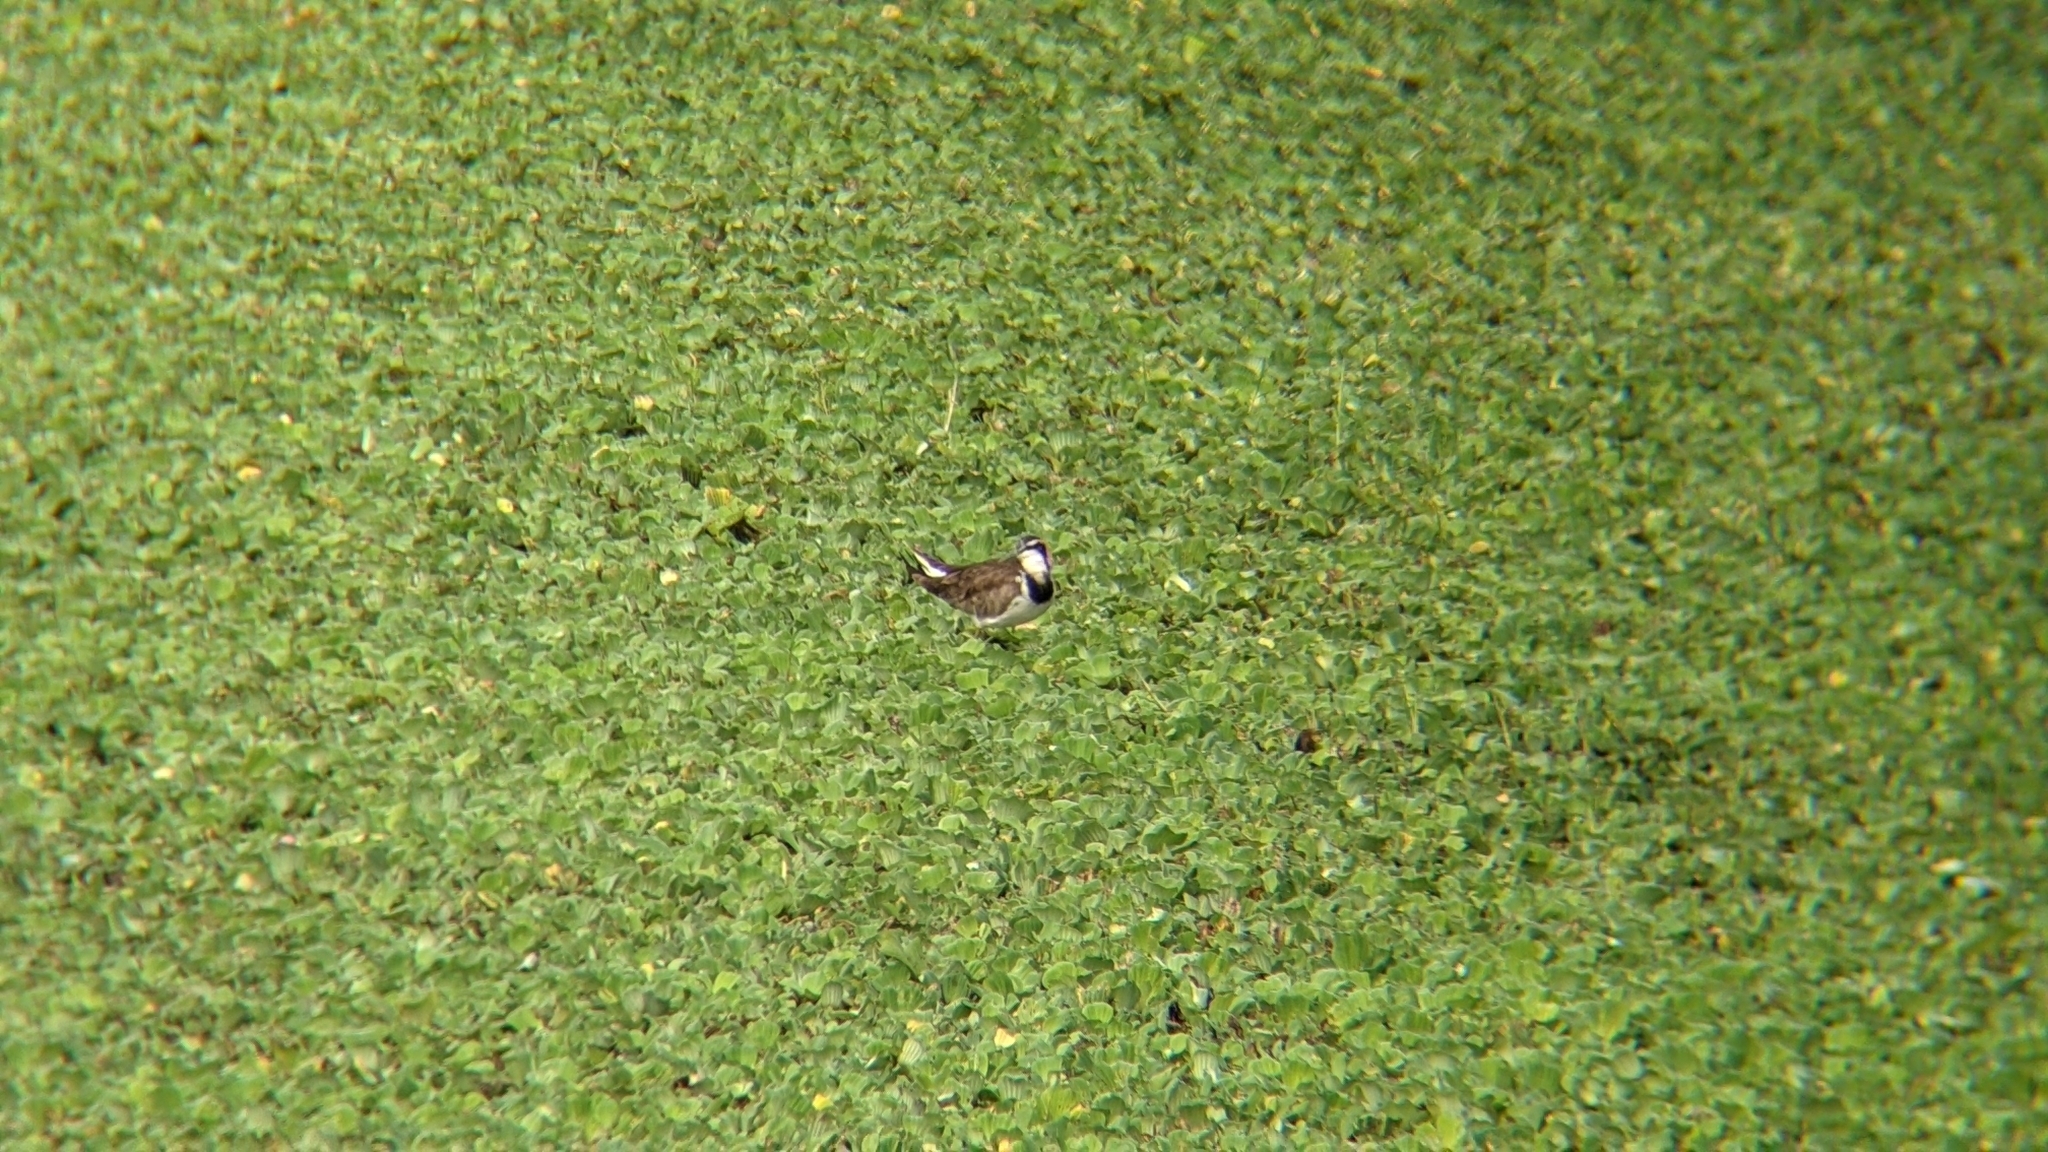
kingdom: Animalia
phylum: Chordata
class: Aves
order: Charadriiformes
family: Jacanidae
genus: Hydrophasianus
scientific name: Hydrophasianus chirurgus
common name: Pheasant-tailed jacana
